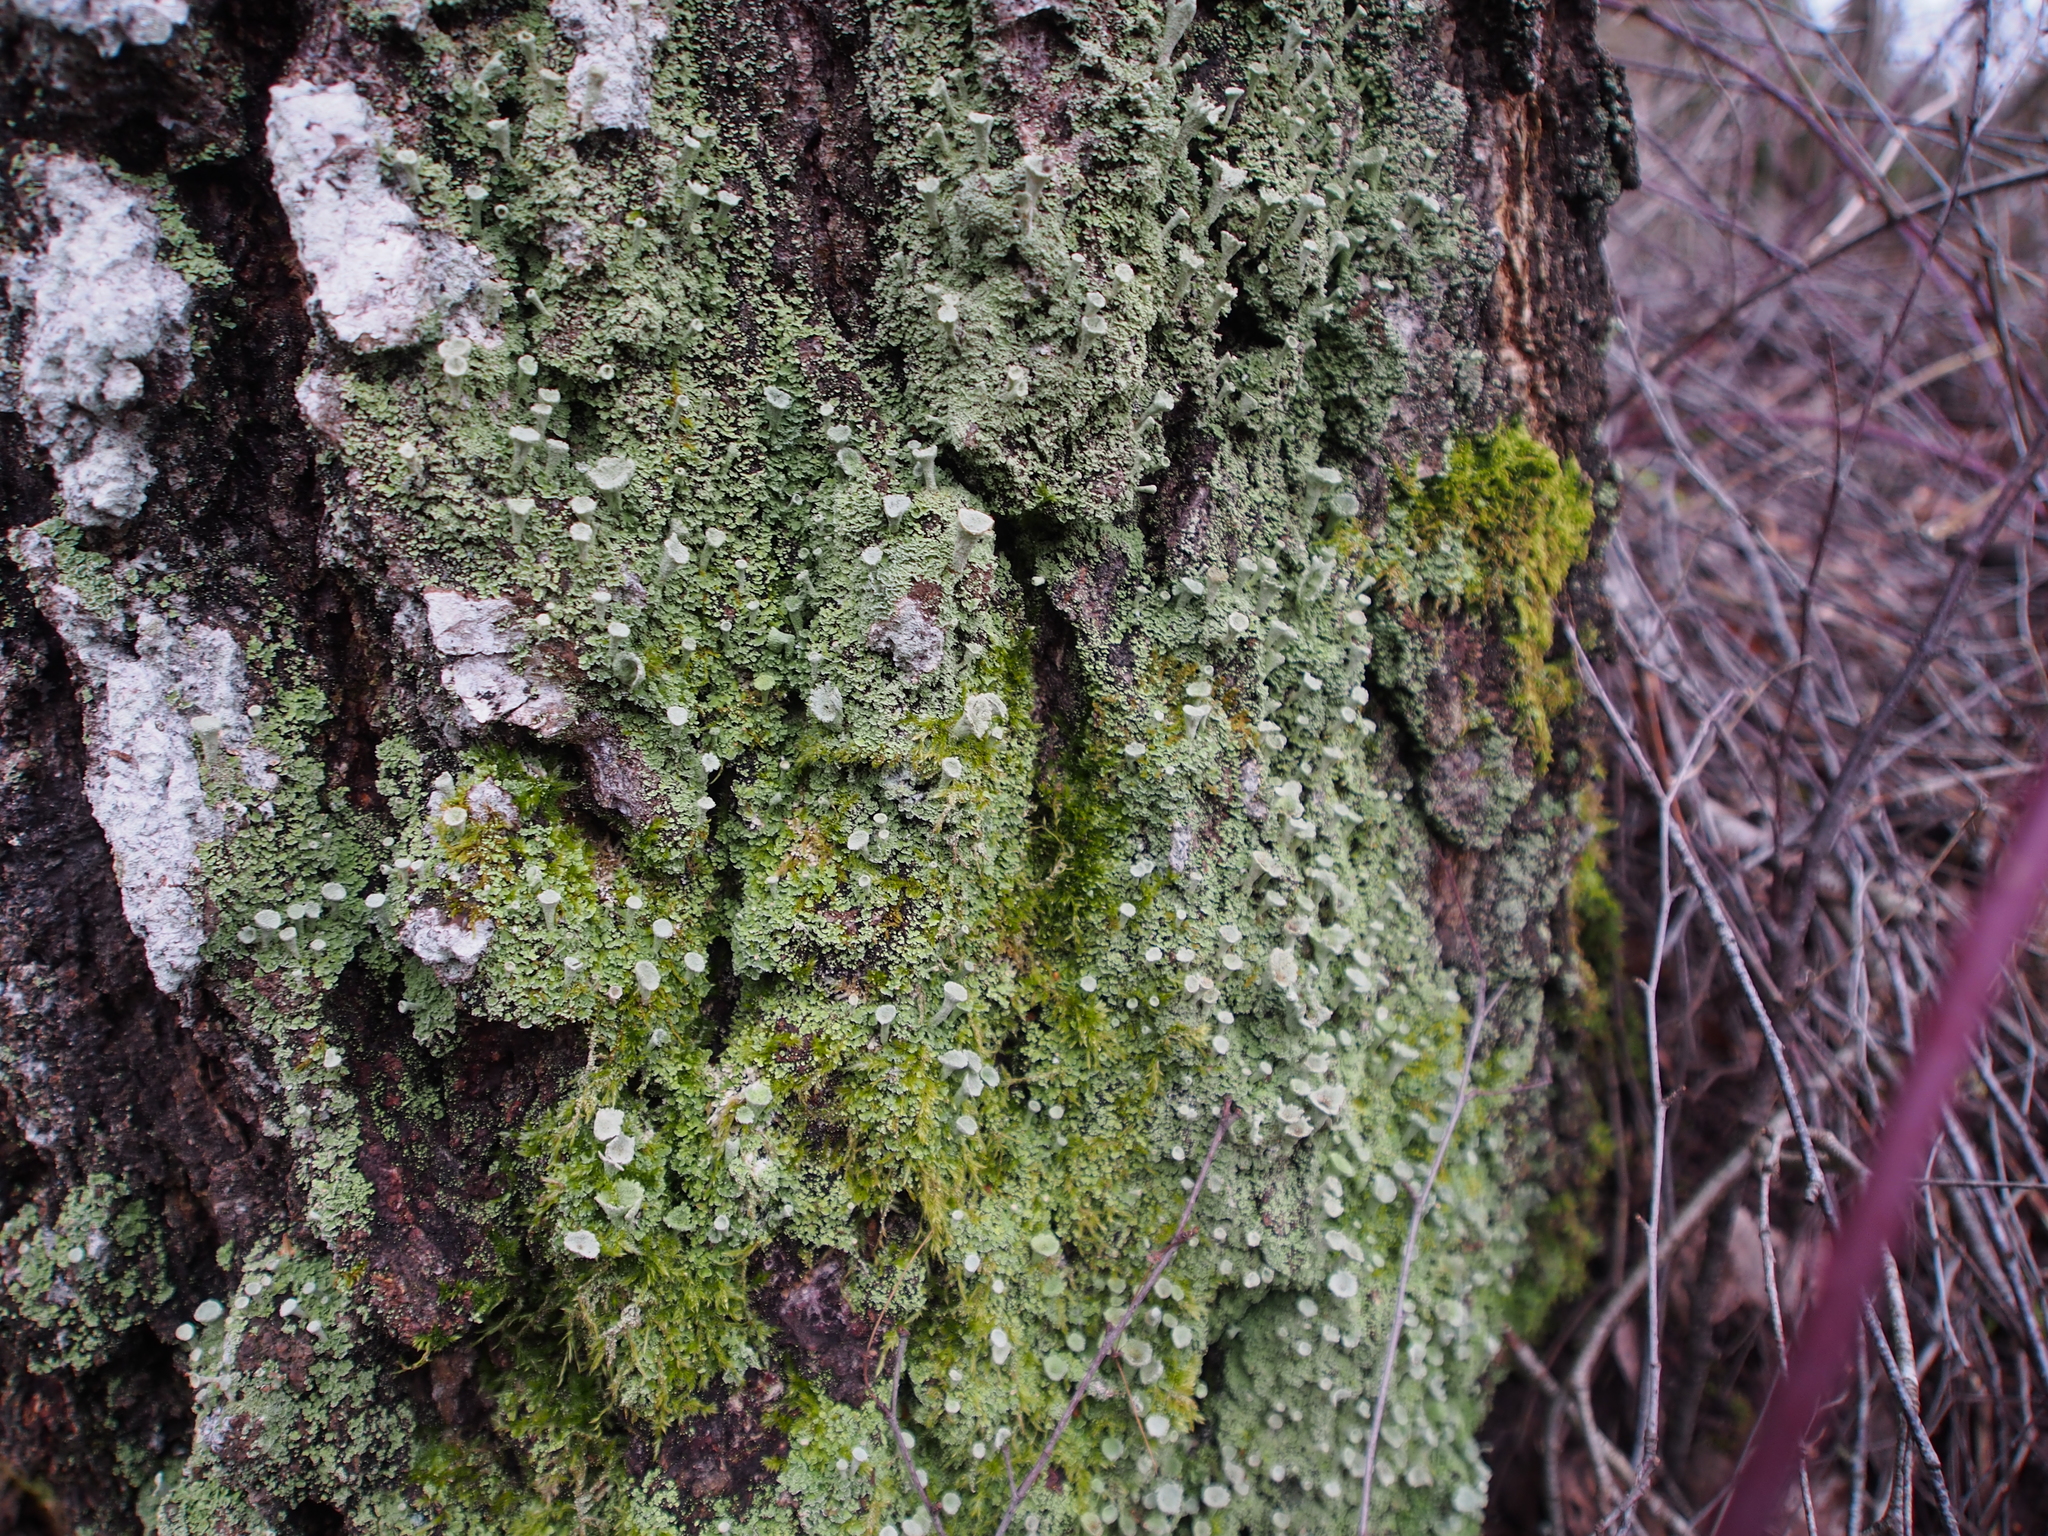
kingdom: Fungi
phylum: Ascomycota
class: Lecanoromycetes
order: Lecanorales
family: Cladoniaceae
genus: Cladonia
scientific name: Cladonia
